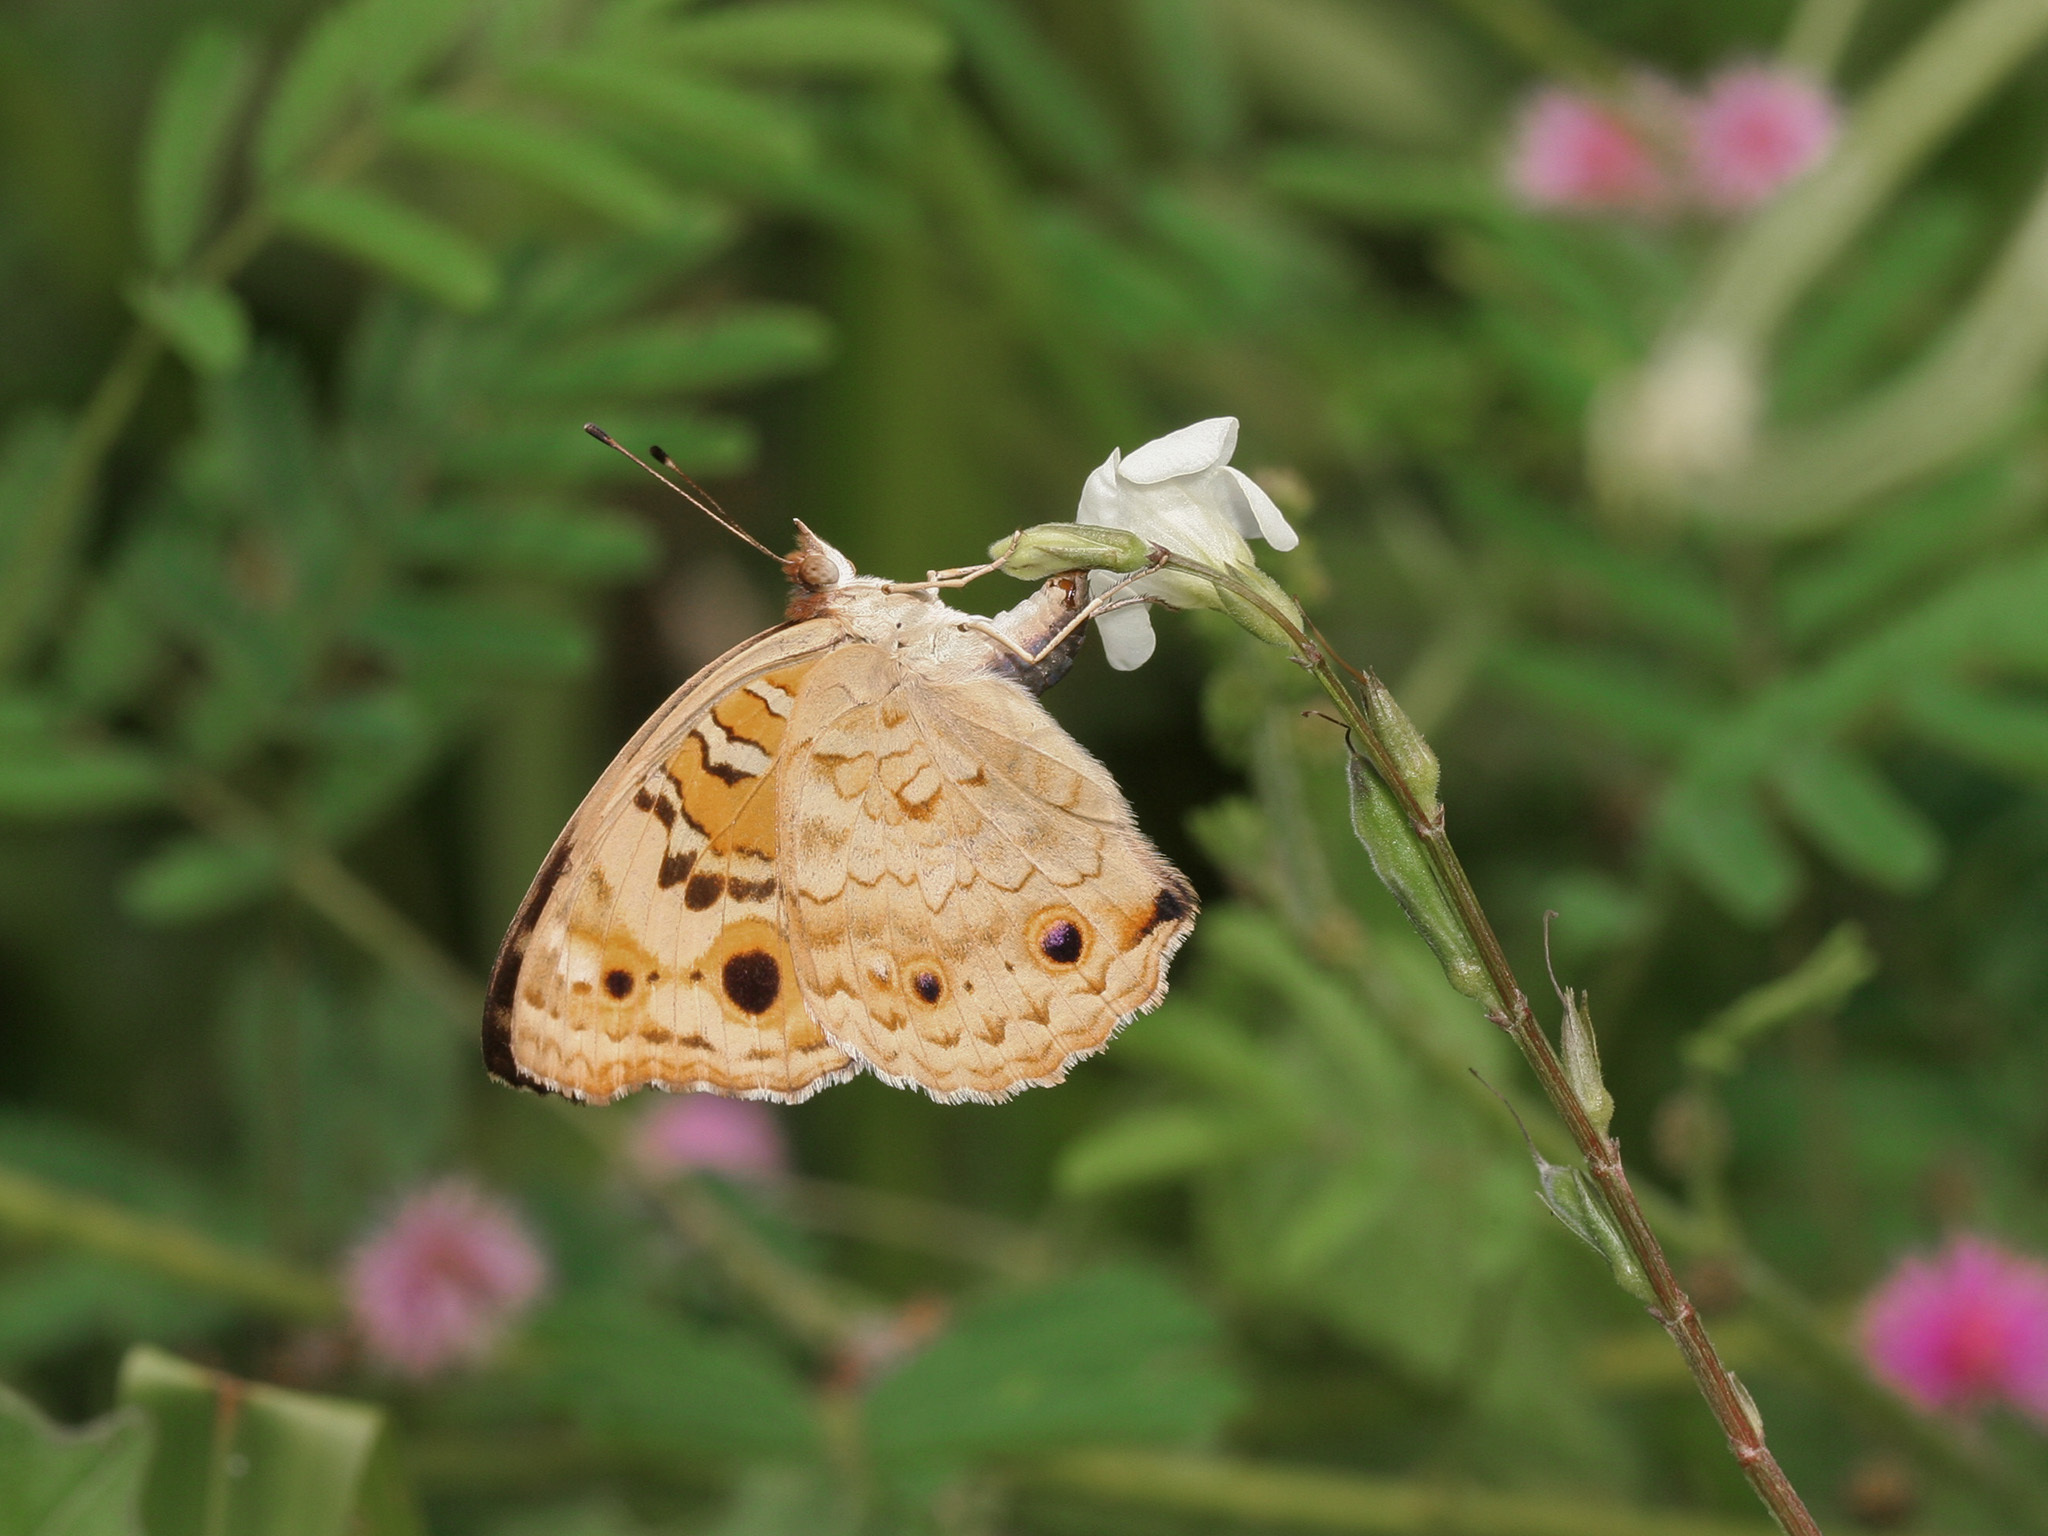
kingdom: Animalia
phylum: Arthropoda
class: Insecta
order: Lepidoptera
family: Nymphalidae
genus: Junonia
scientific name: Junonia orithya
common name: Blue pansy
